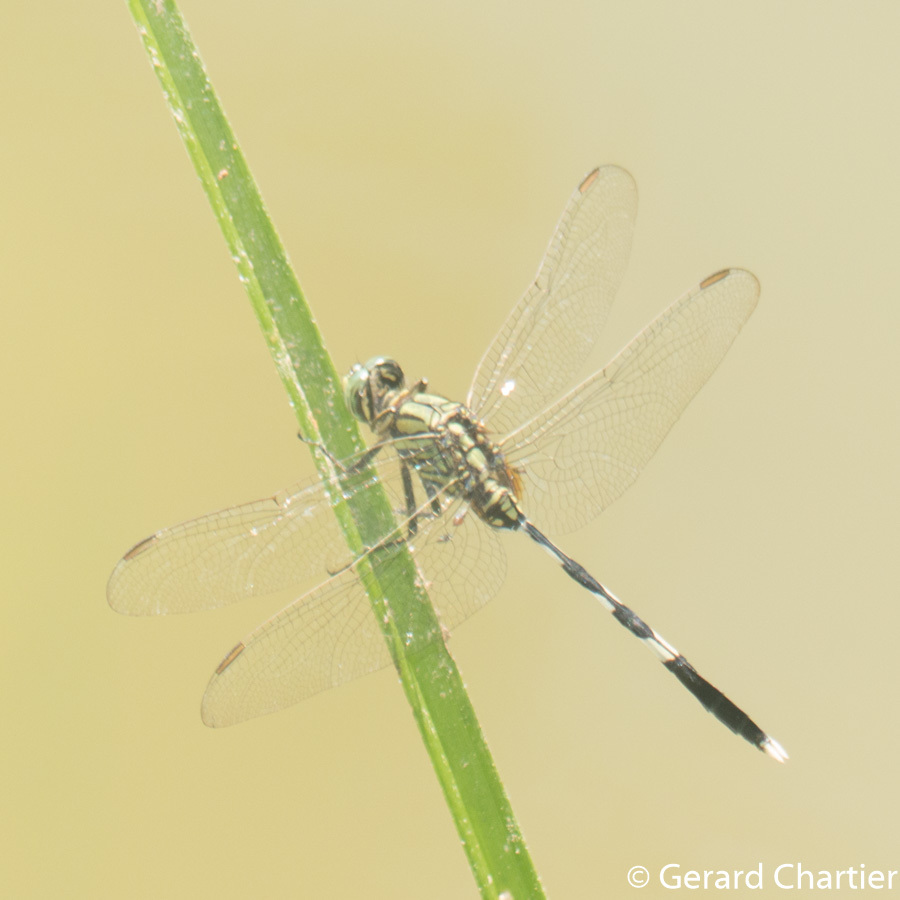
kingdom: Animalia
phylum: Arthropoda
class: Insecta
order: Odonata
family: Libellulidae
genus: Orthetrum
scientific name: Orthetrum sabina
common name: Slender skimmer
